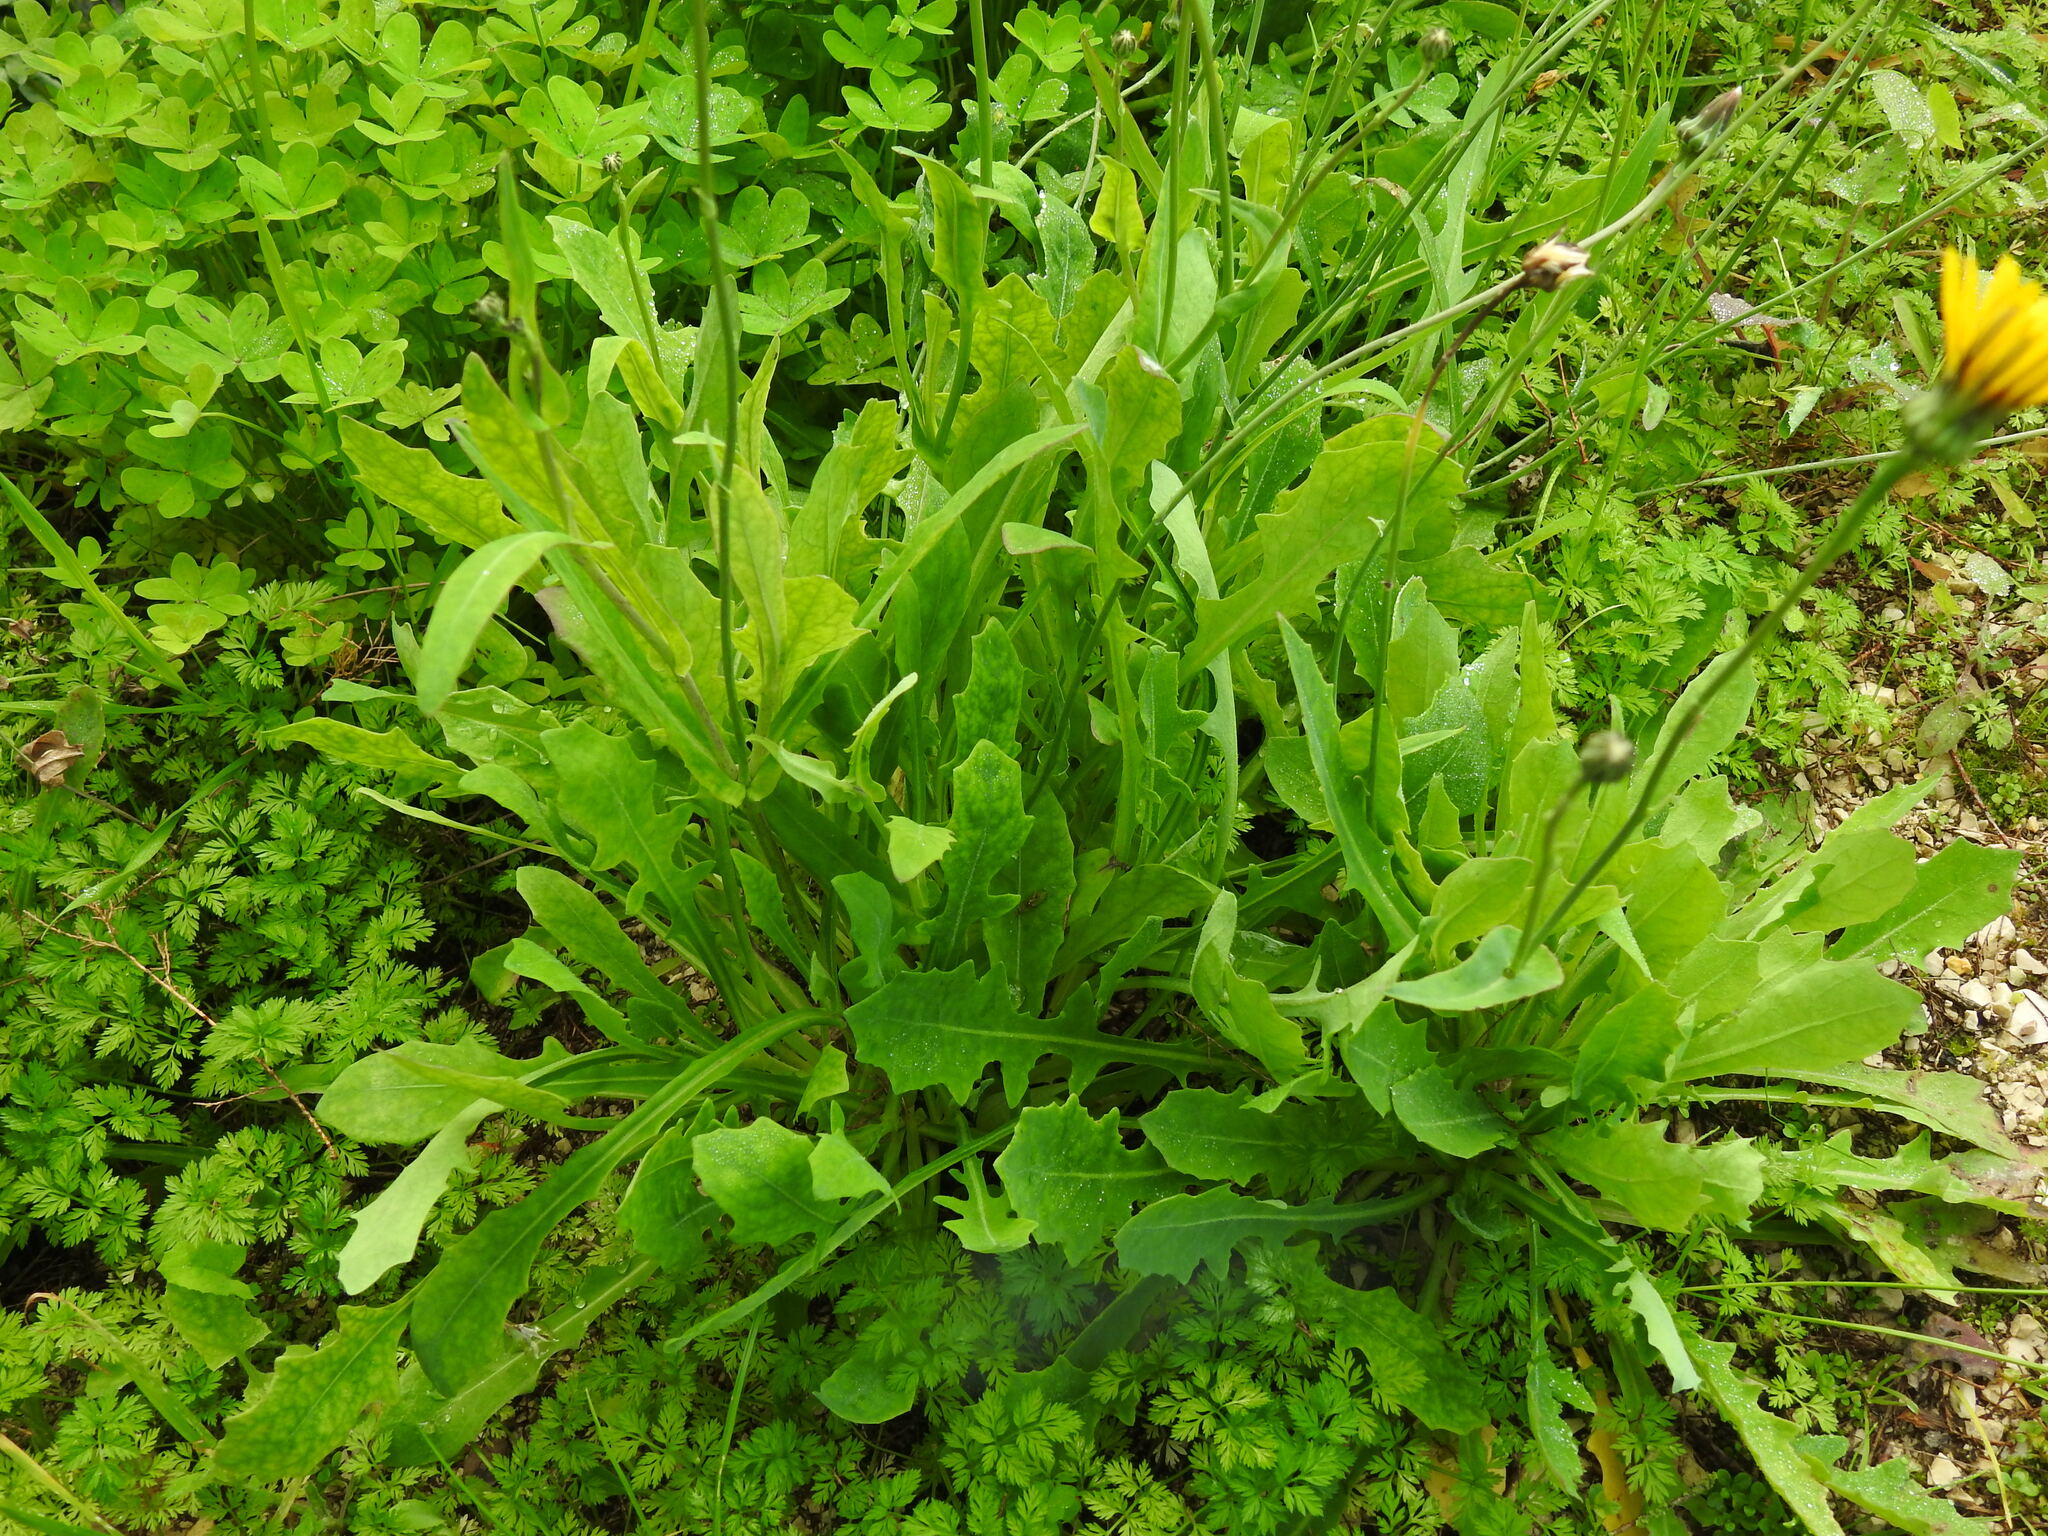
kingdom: Plantae
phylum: Tracheophyta
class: Magnoliopsida
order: Asterales
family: Asteraceae
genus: Reichardia
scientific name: Reichardia picroides
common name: Common brighteyes
